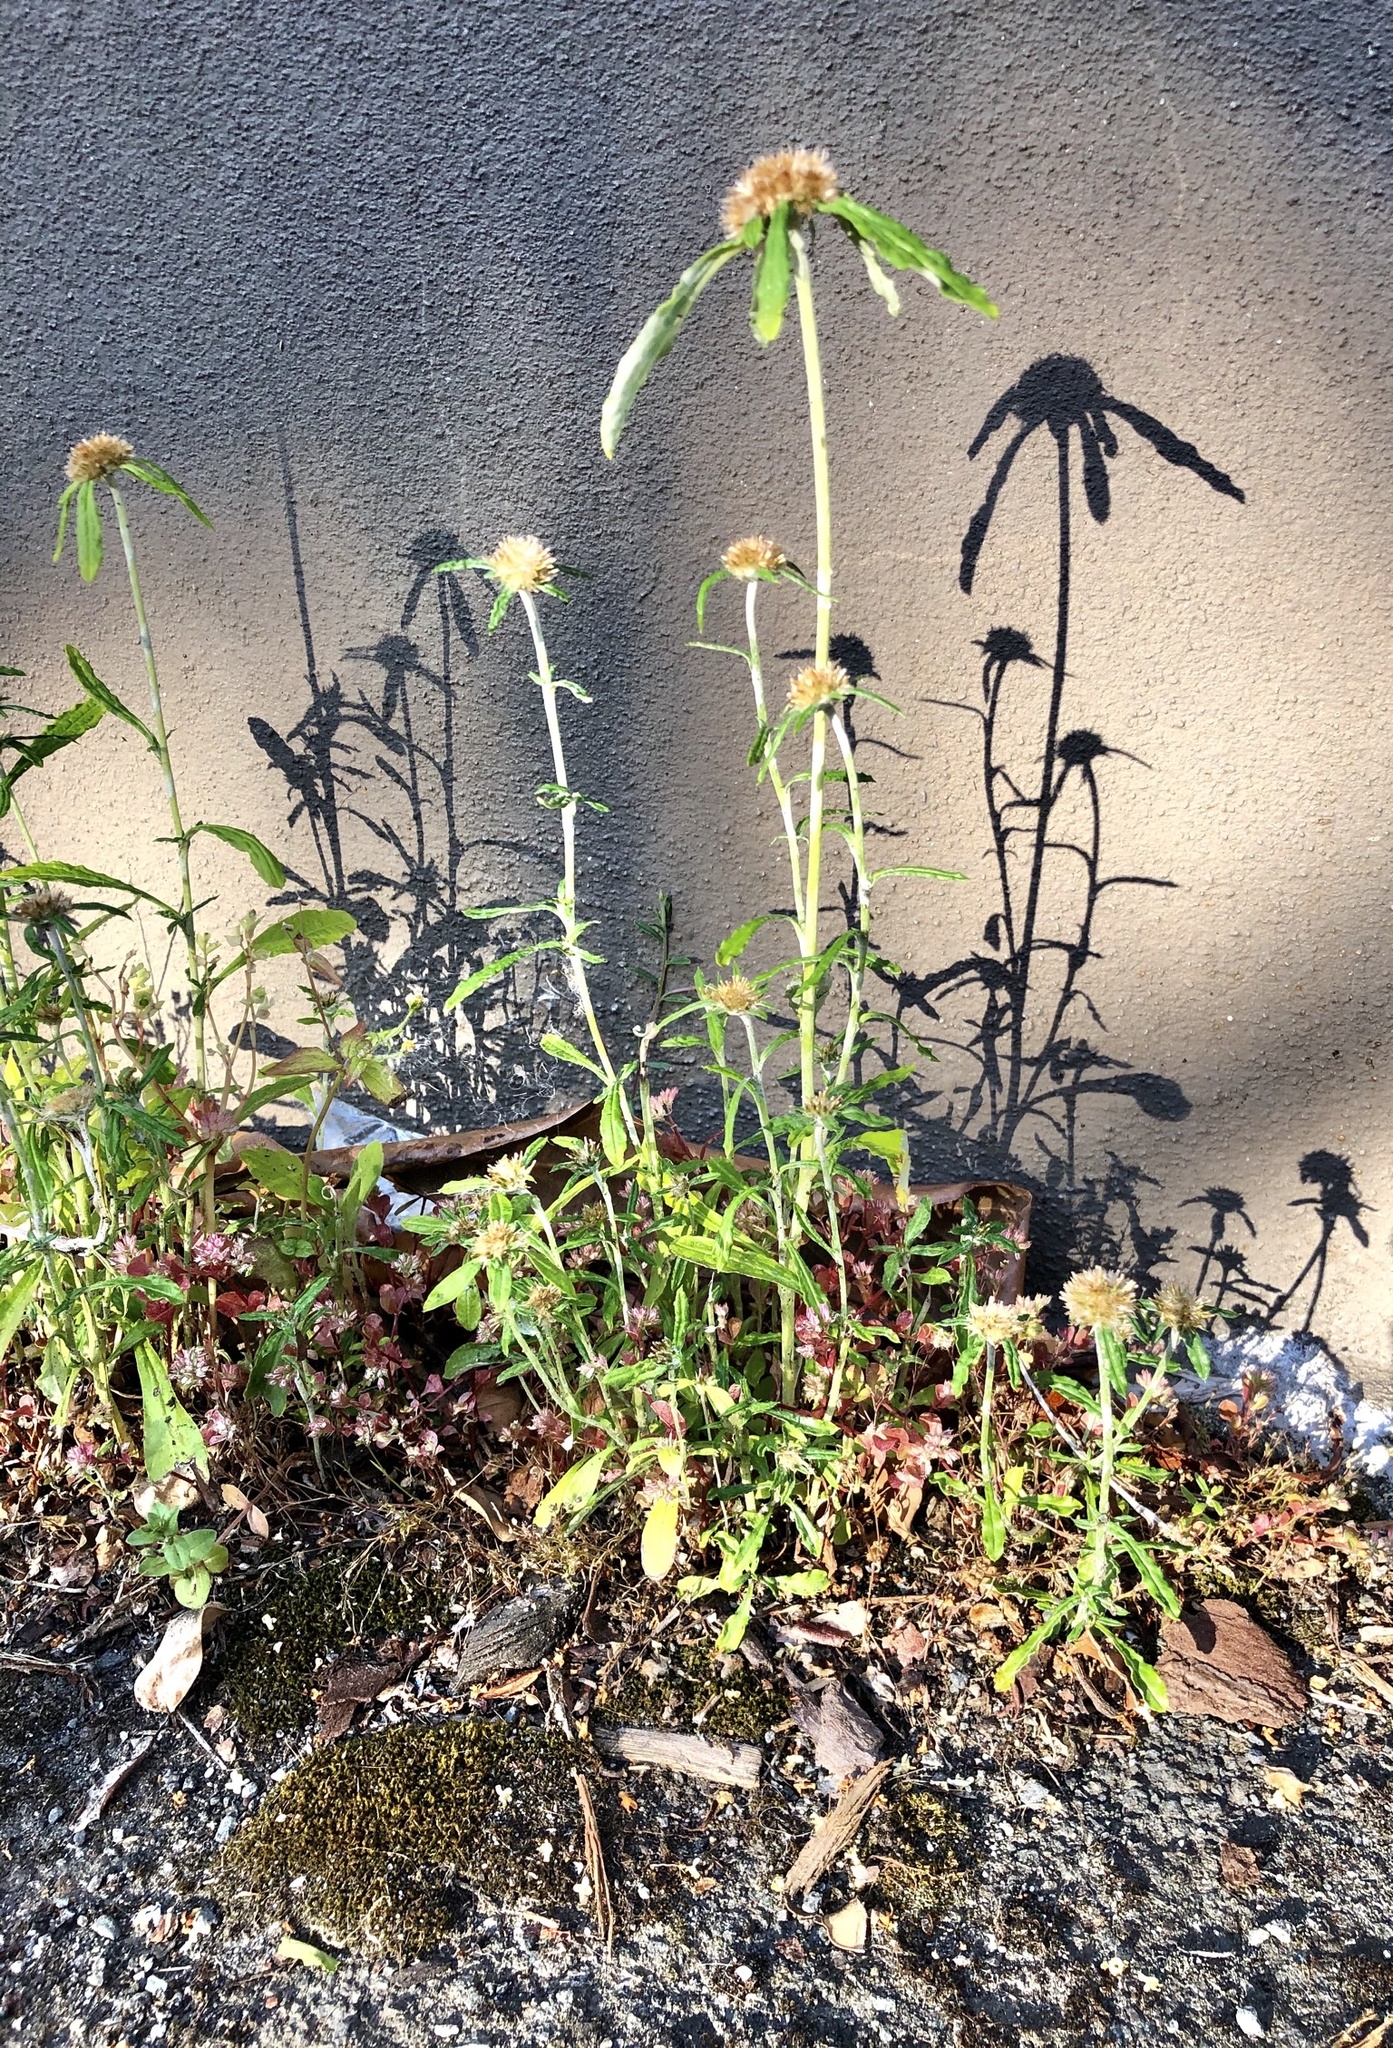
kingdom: Plantae
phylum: Tracheophyta
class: Magnoliopsida
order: Asterales
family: Asteraceae
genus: Euchiton
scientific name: Euchiton sphaericus
